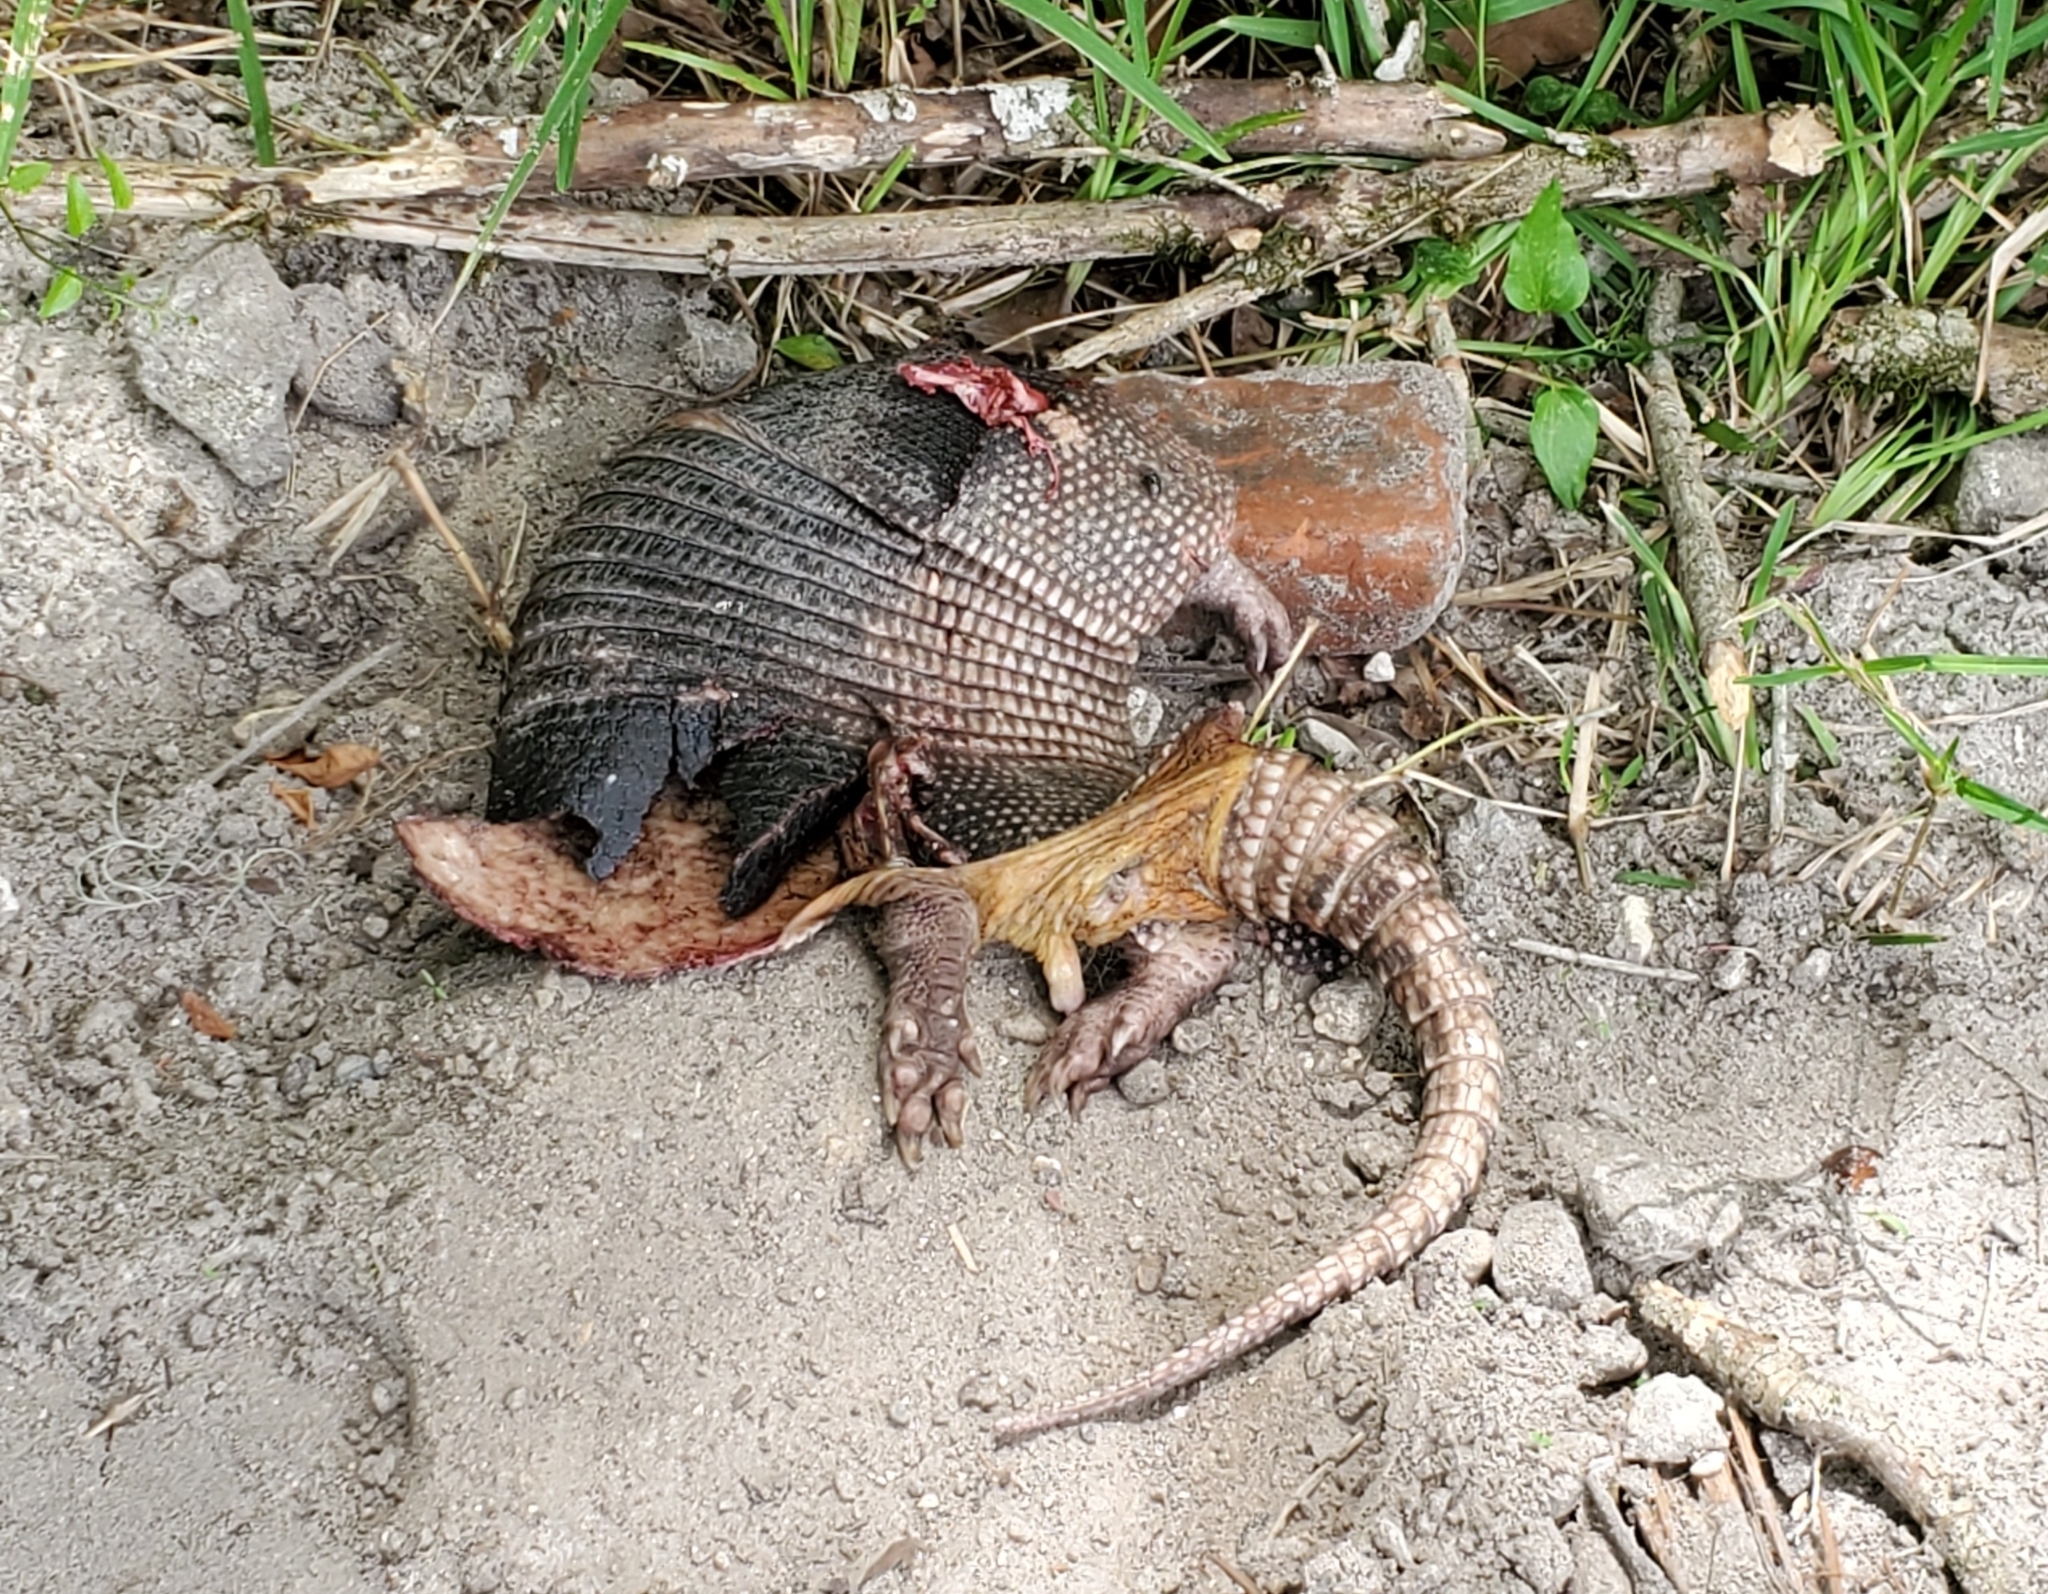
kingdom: Animalia
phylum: Chordata
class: Mammalia
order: Cingulata
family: Dasypodidae
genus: Dasypus
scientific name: Dasypus novemcinctus
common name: Nine-banded armadillo
